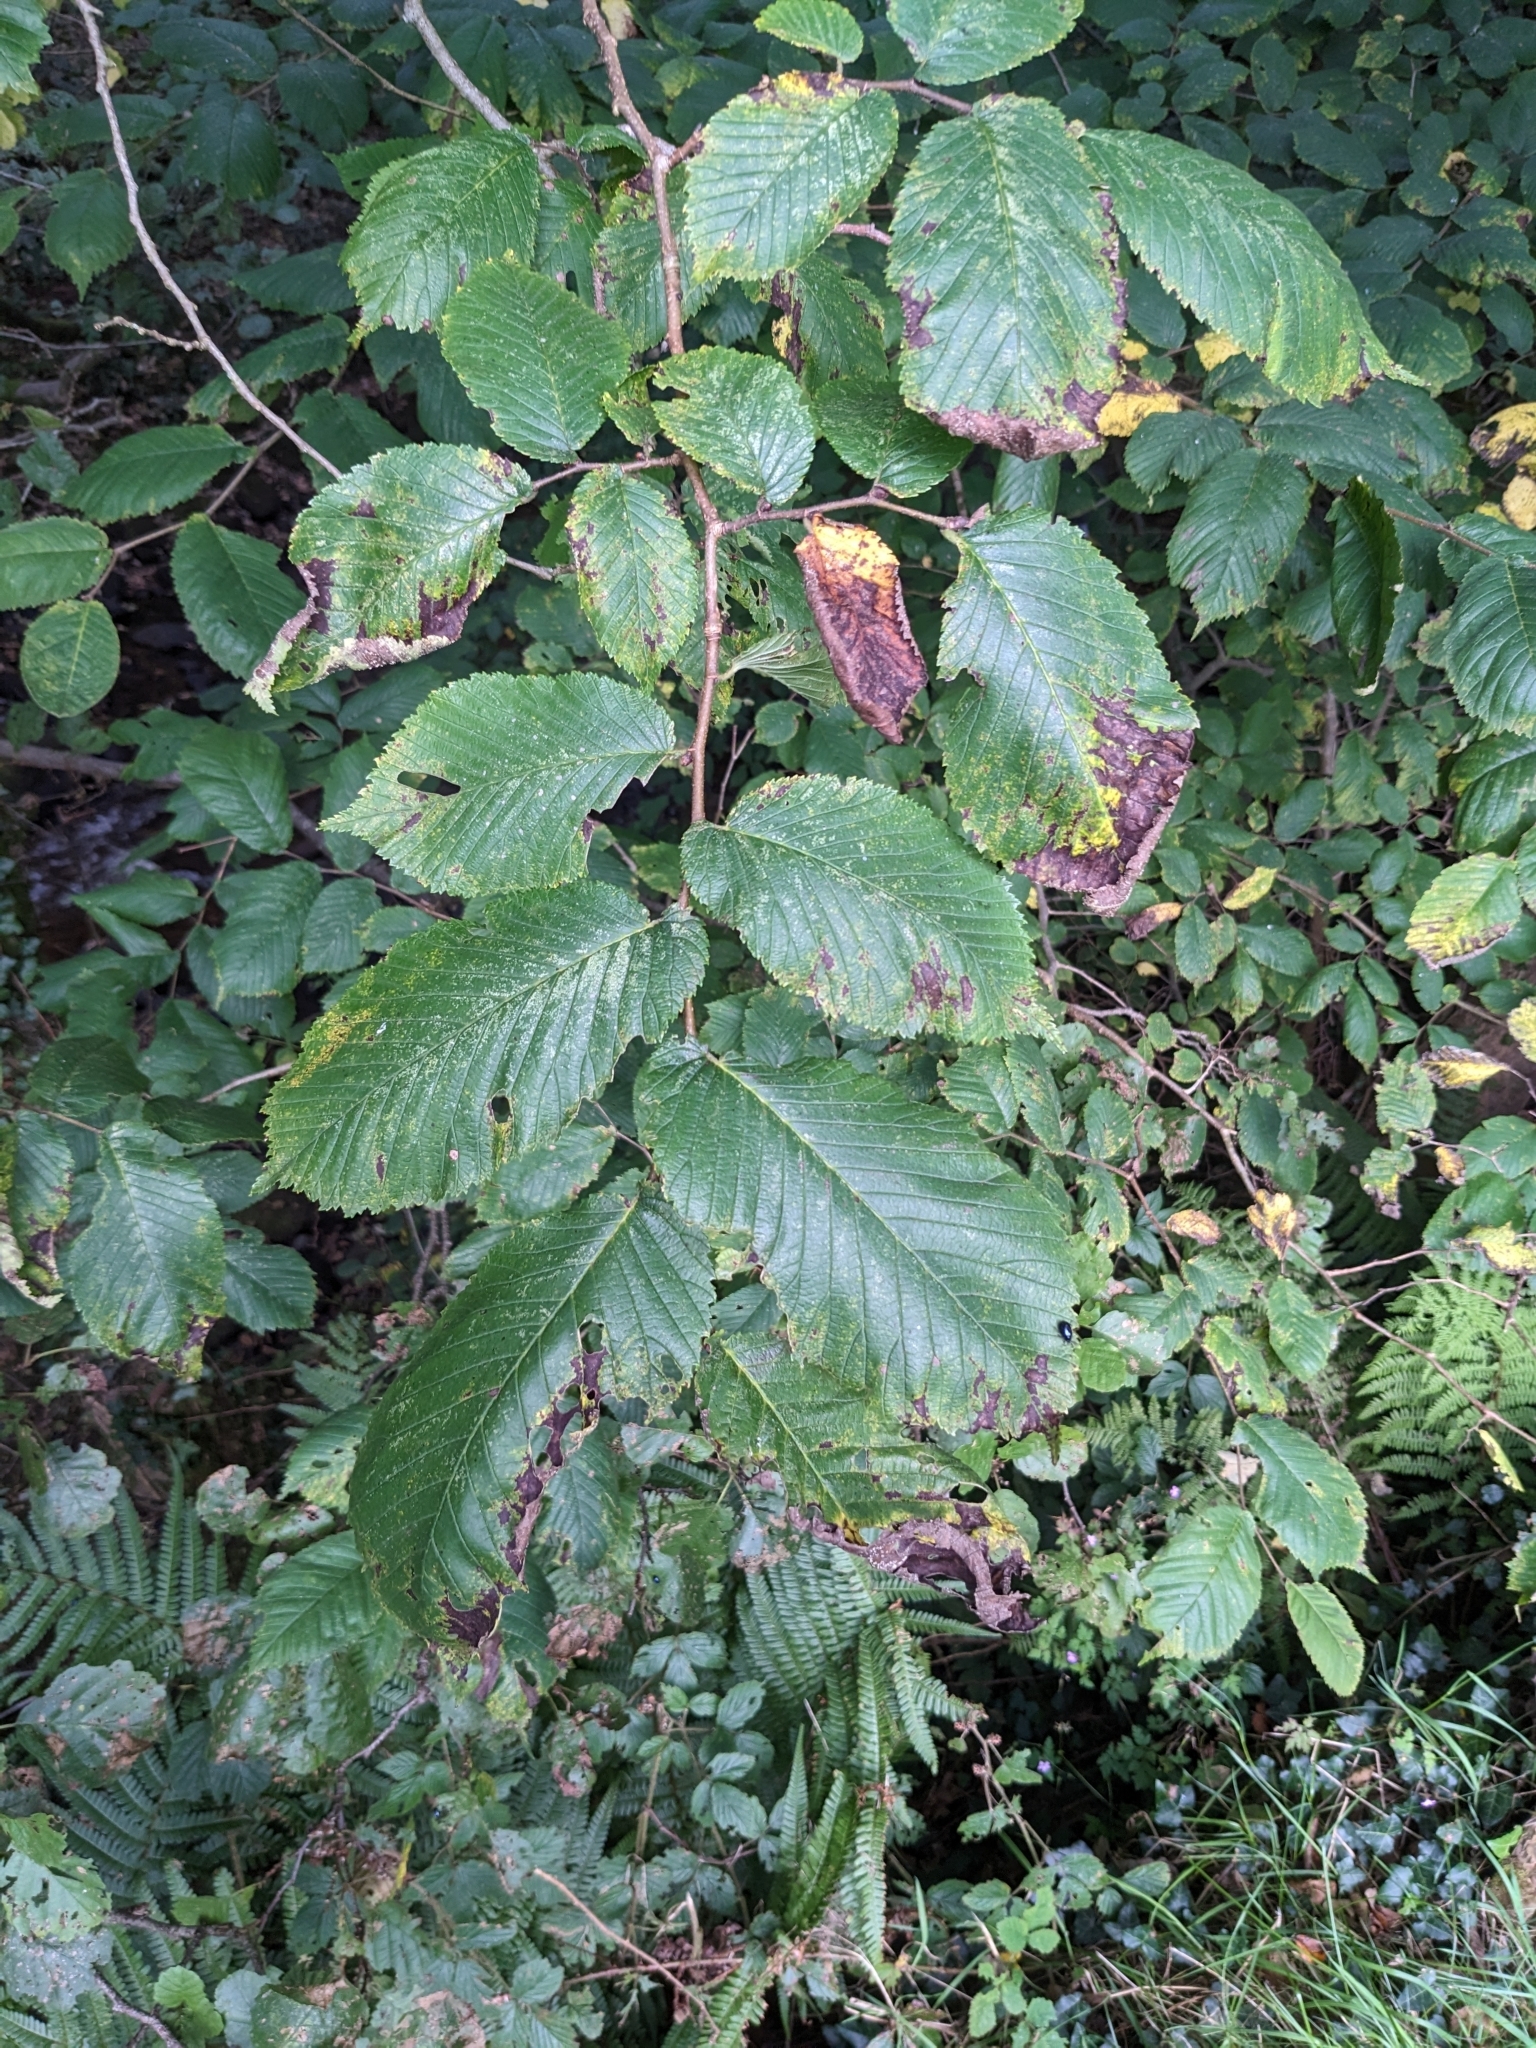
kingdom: Plantae
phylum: Tracheophyta
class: Magnoliopsida
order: Rosales
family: Ulmaceae
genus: Ulmus
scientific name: Ulmus glabra
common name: Wych elm
